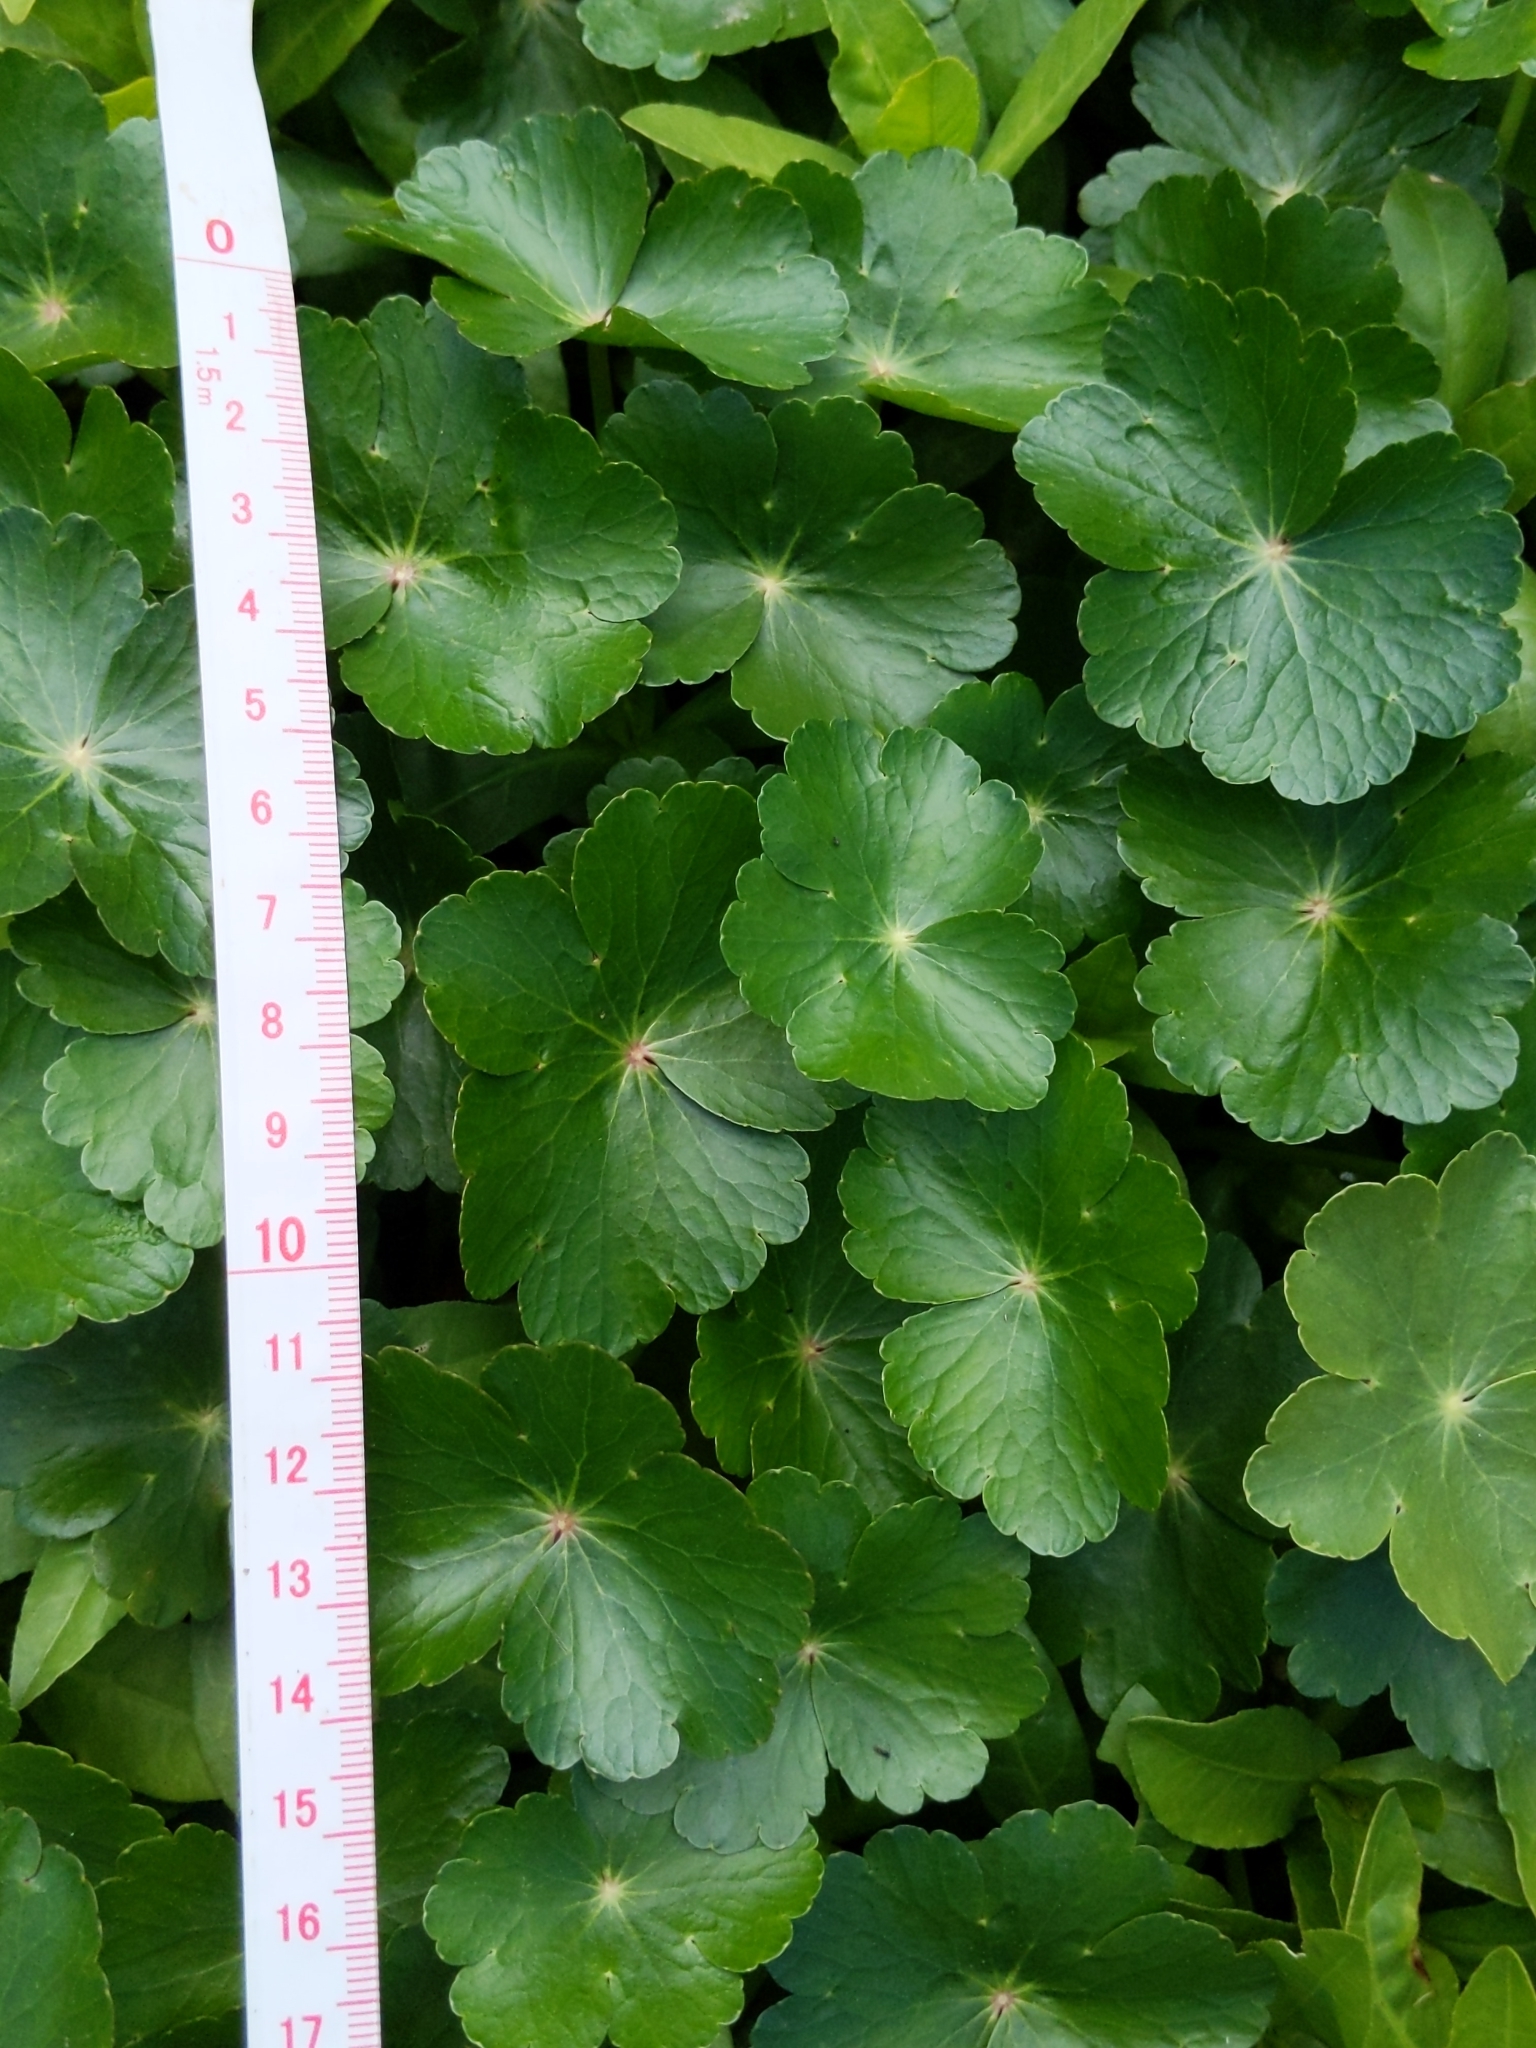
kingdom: Plantae
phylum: Tracheophyta
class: Magnoliopsida
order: Apiales
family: Araliaceae
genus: Hydrocotyle
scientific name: Hydrocotyle ranunculoides
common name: Floating pennywort
